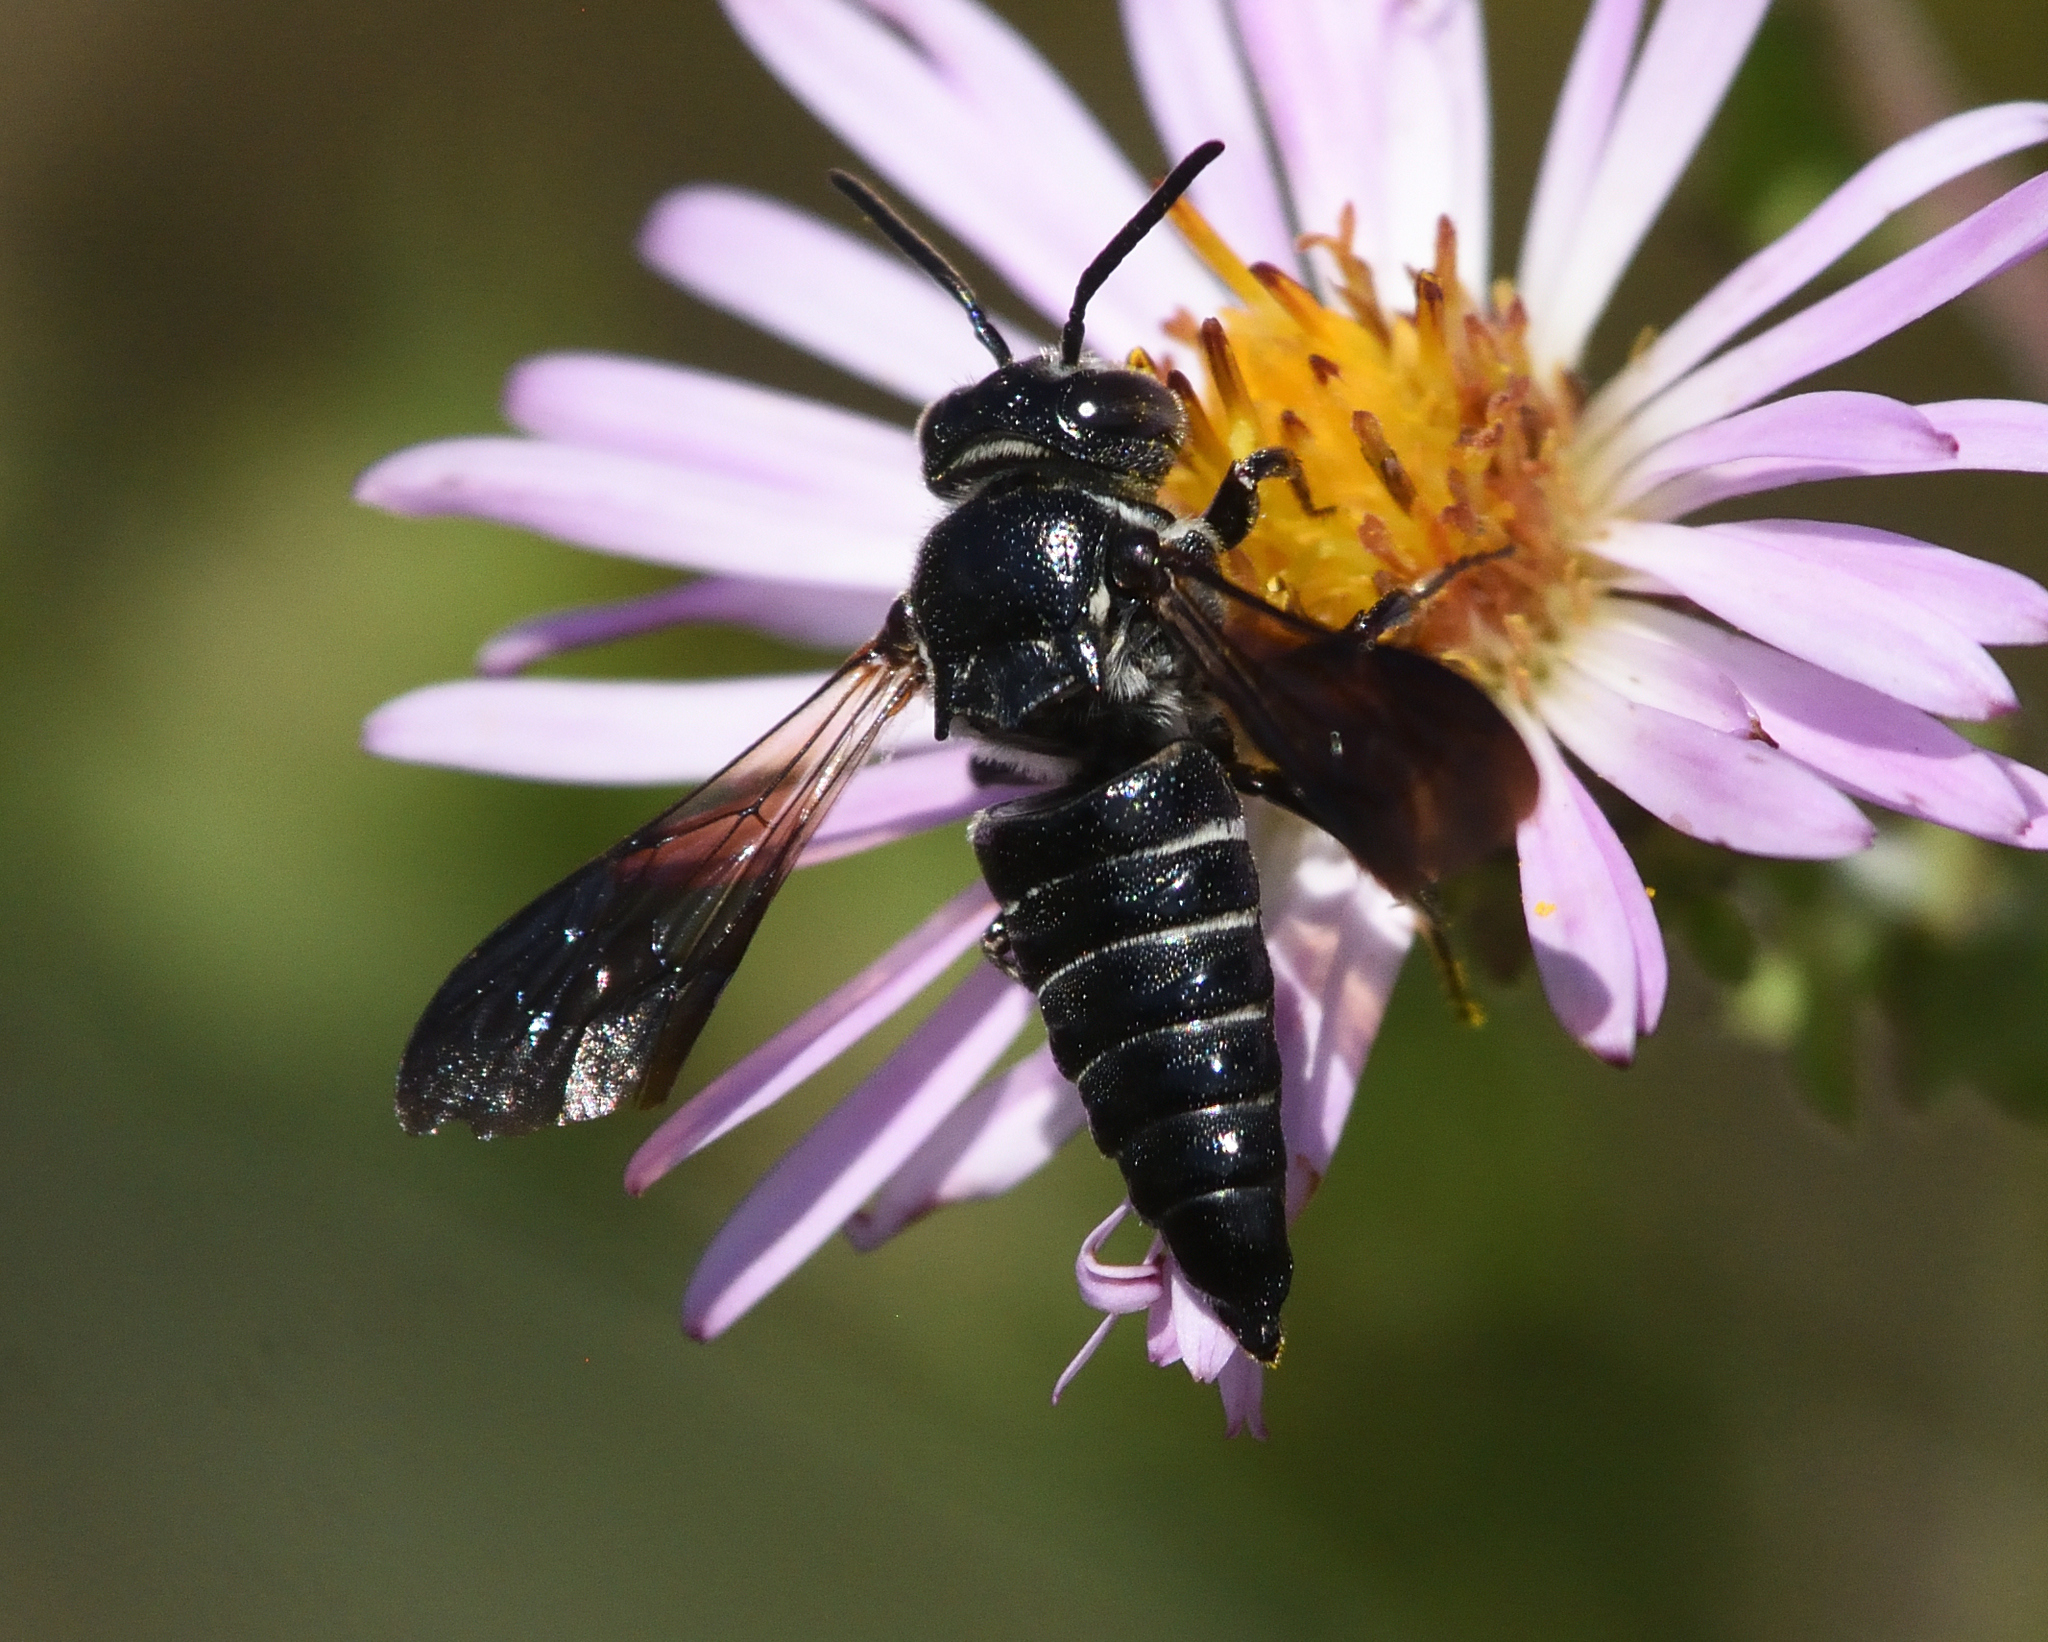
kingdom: Animalia
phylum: Arthropoda
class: Insecta
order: Hymenoptera
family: Megachilidae
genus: Coelioxys
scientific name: Coelioxys dolichos
